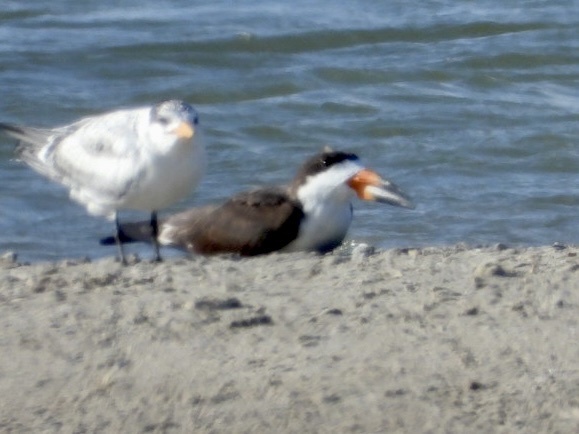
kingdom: Animalia
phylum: Chordata
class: Aves
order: Charadriiformes
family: Laridae
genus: Rynchops
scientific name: Rynchops niger
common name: Black skimmer
